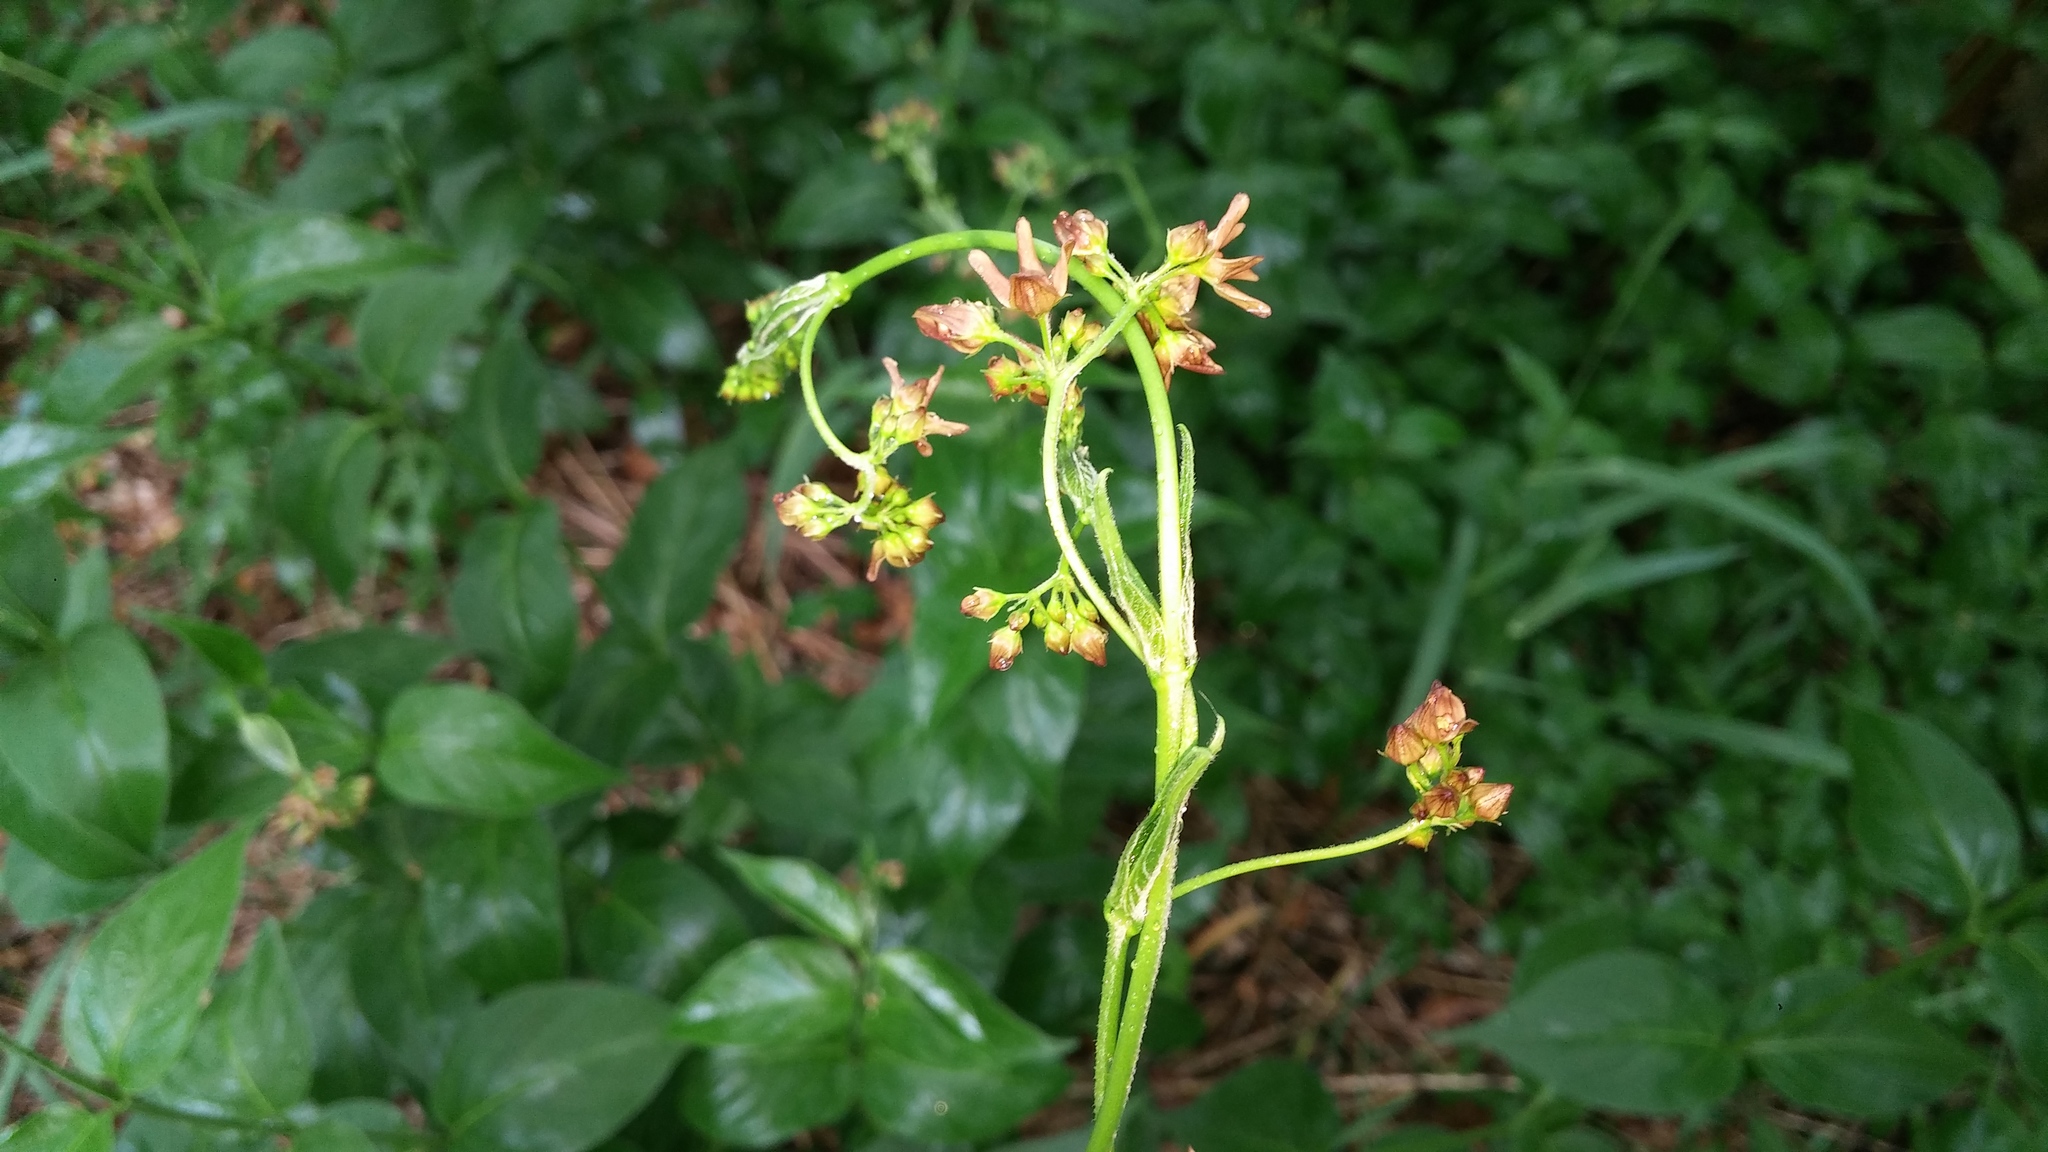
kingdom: Plantae
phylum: Tracheophyta
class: Magnoliopsida
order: Gentianales
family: Apocynaceae
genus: Vincetoxicum
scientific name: Vincetoxicum rossicum
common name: Dog-strangling vine
